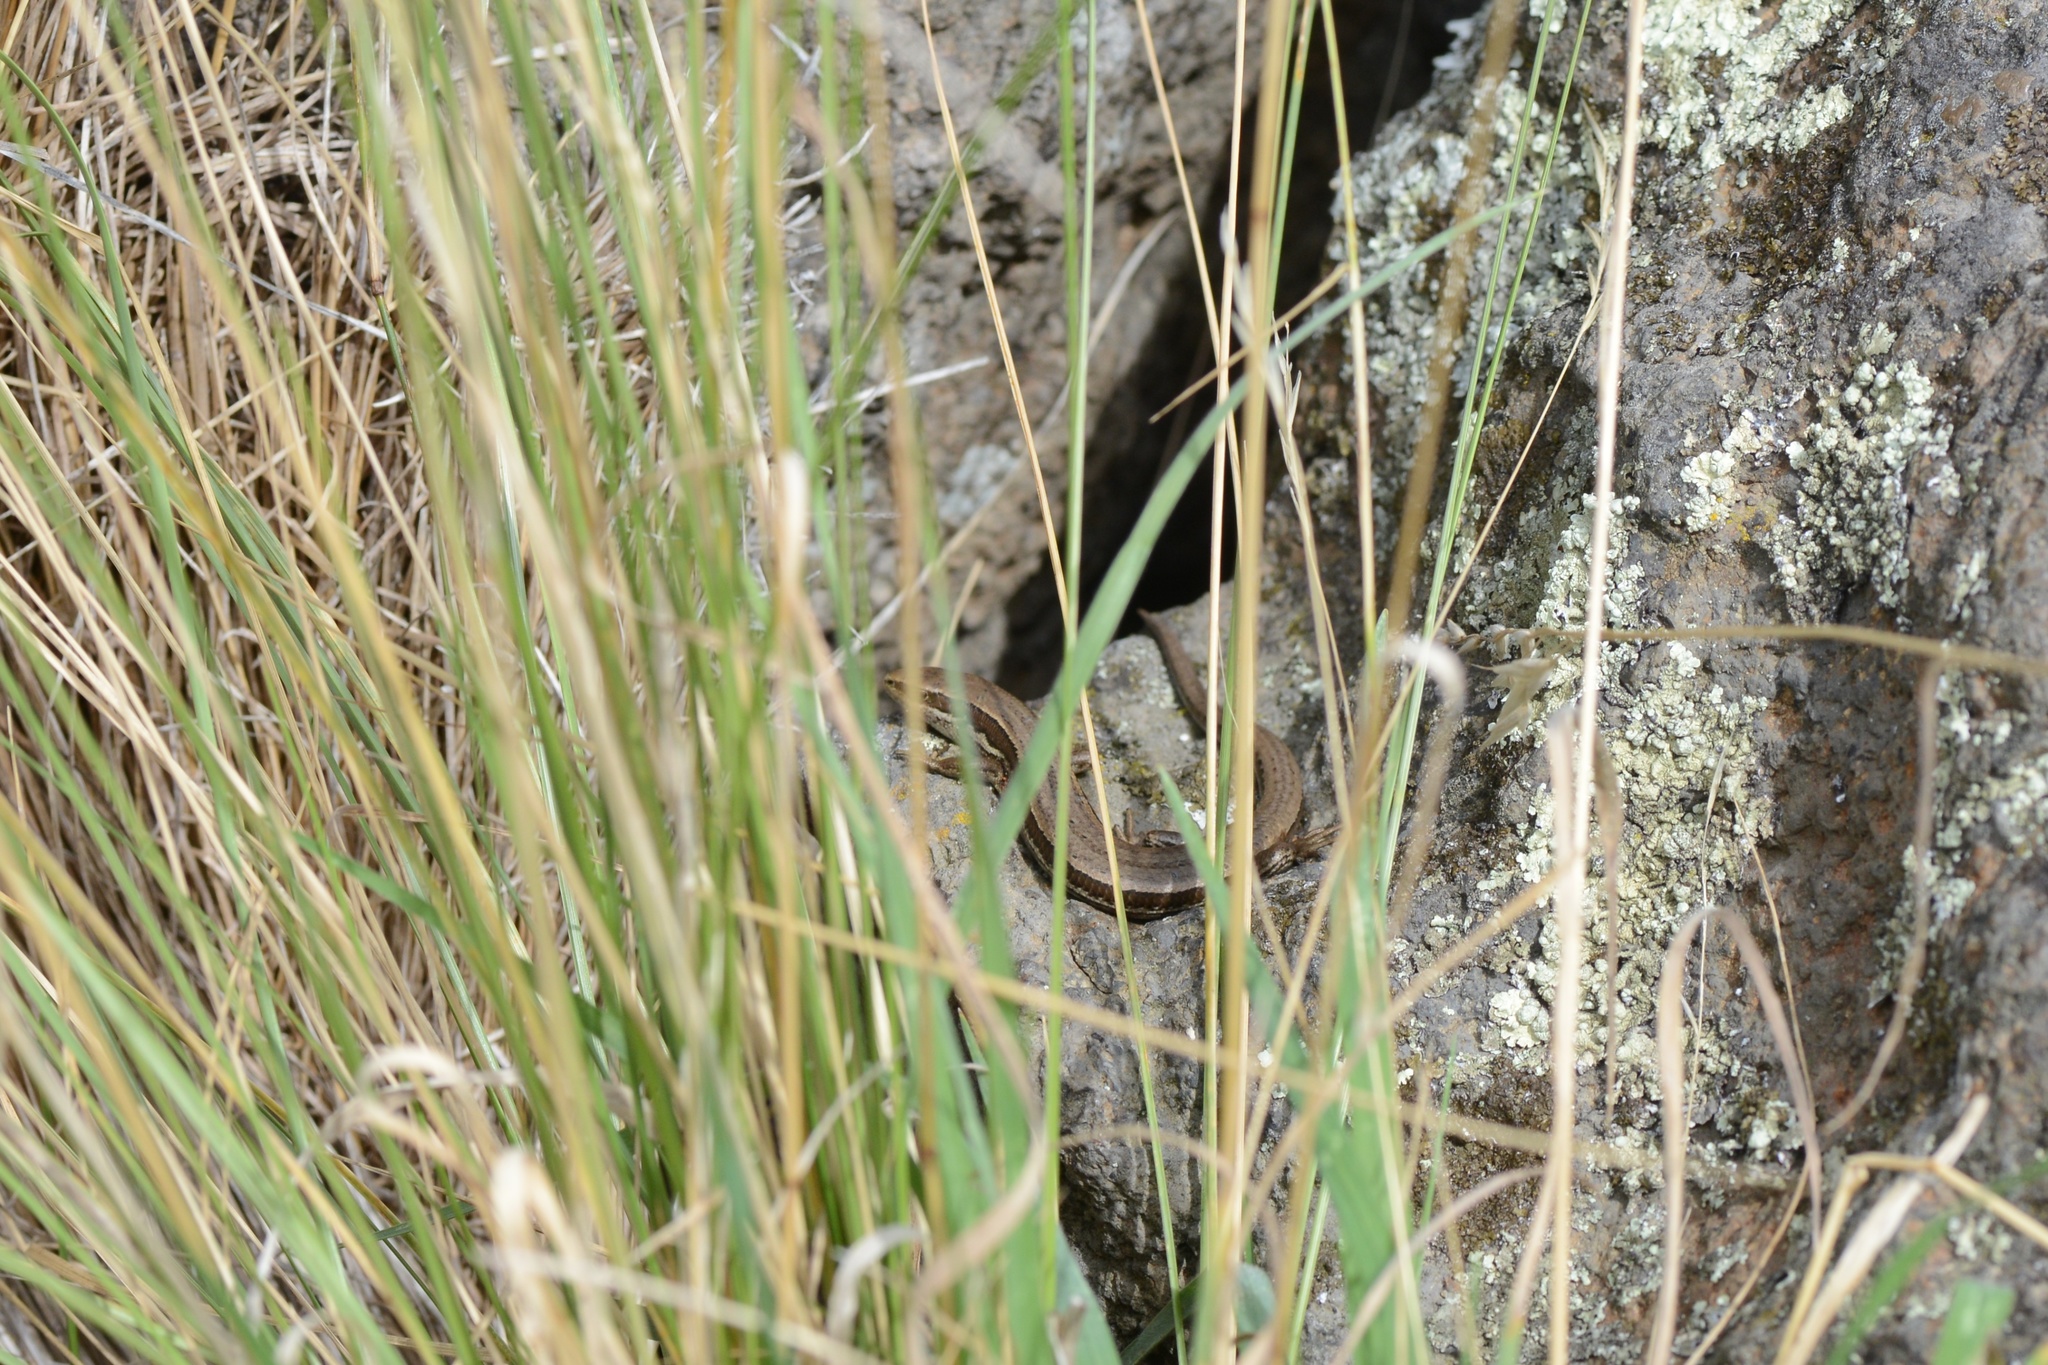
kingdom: Animalia
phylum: Chordata
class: Squamata
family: Scincidae
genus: Oligosoma
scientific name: Oligosoma polychroma
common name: Common new zealand skink
